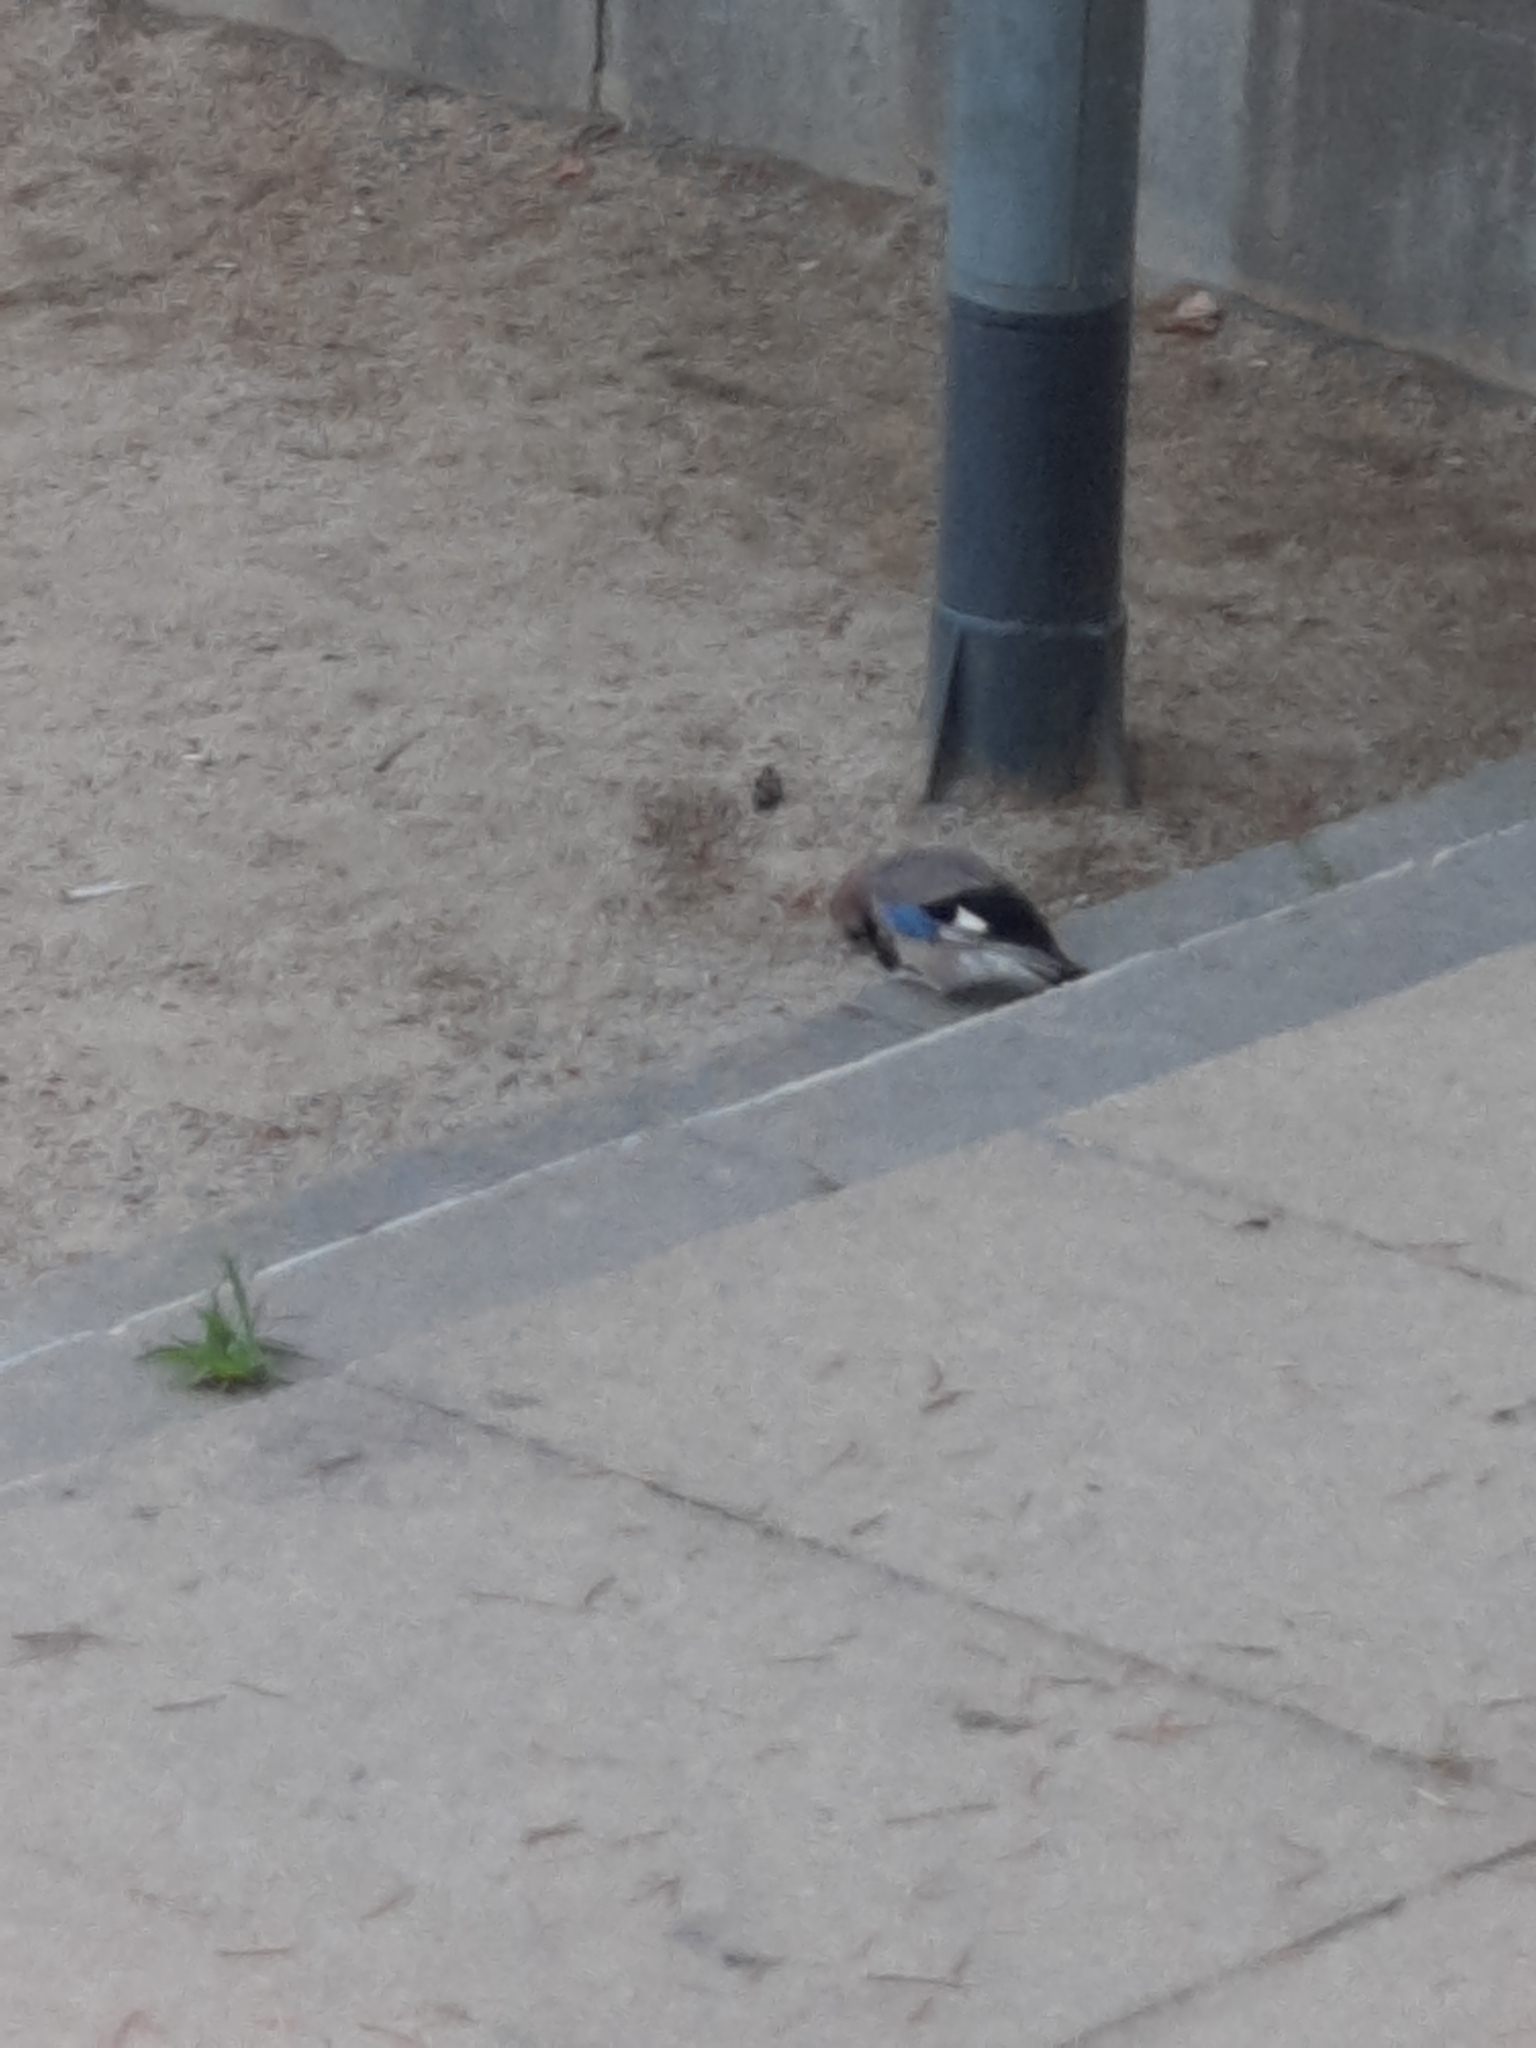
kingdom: Animalia
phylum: Chordata
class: Aves
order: Passeriformes
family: Corvidae
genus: Garrulus
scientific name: Garrulus glandarius
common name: Eurasian jay
